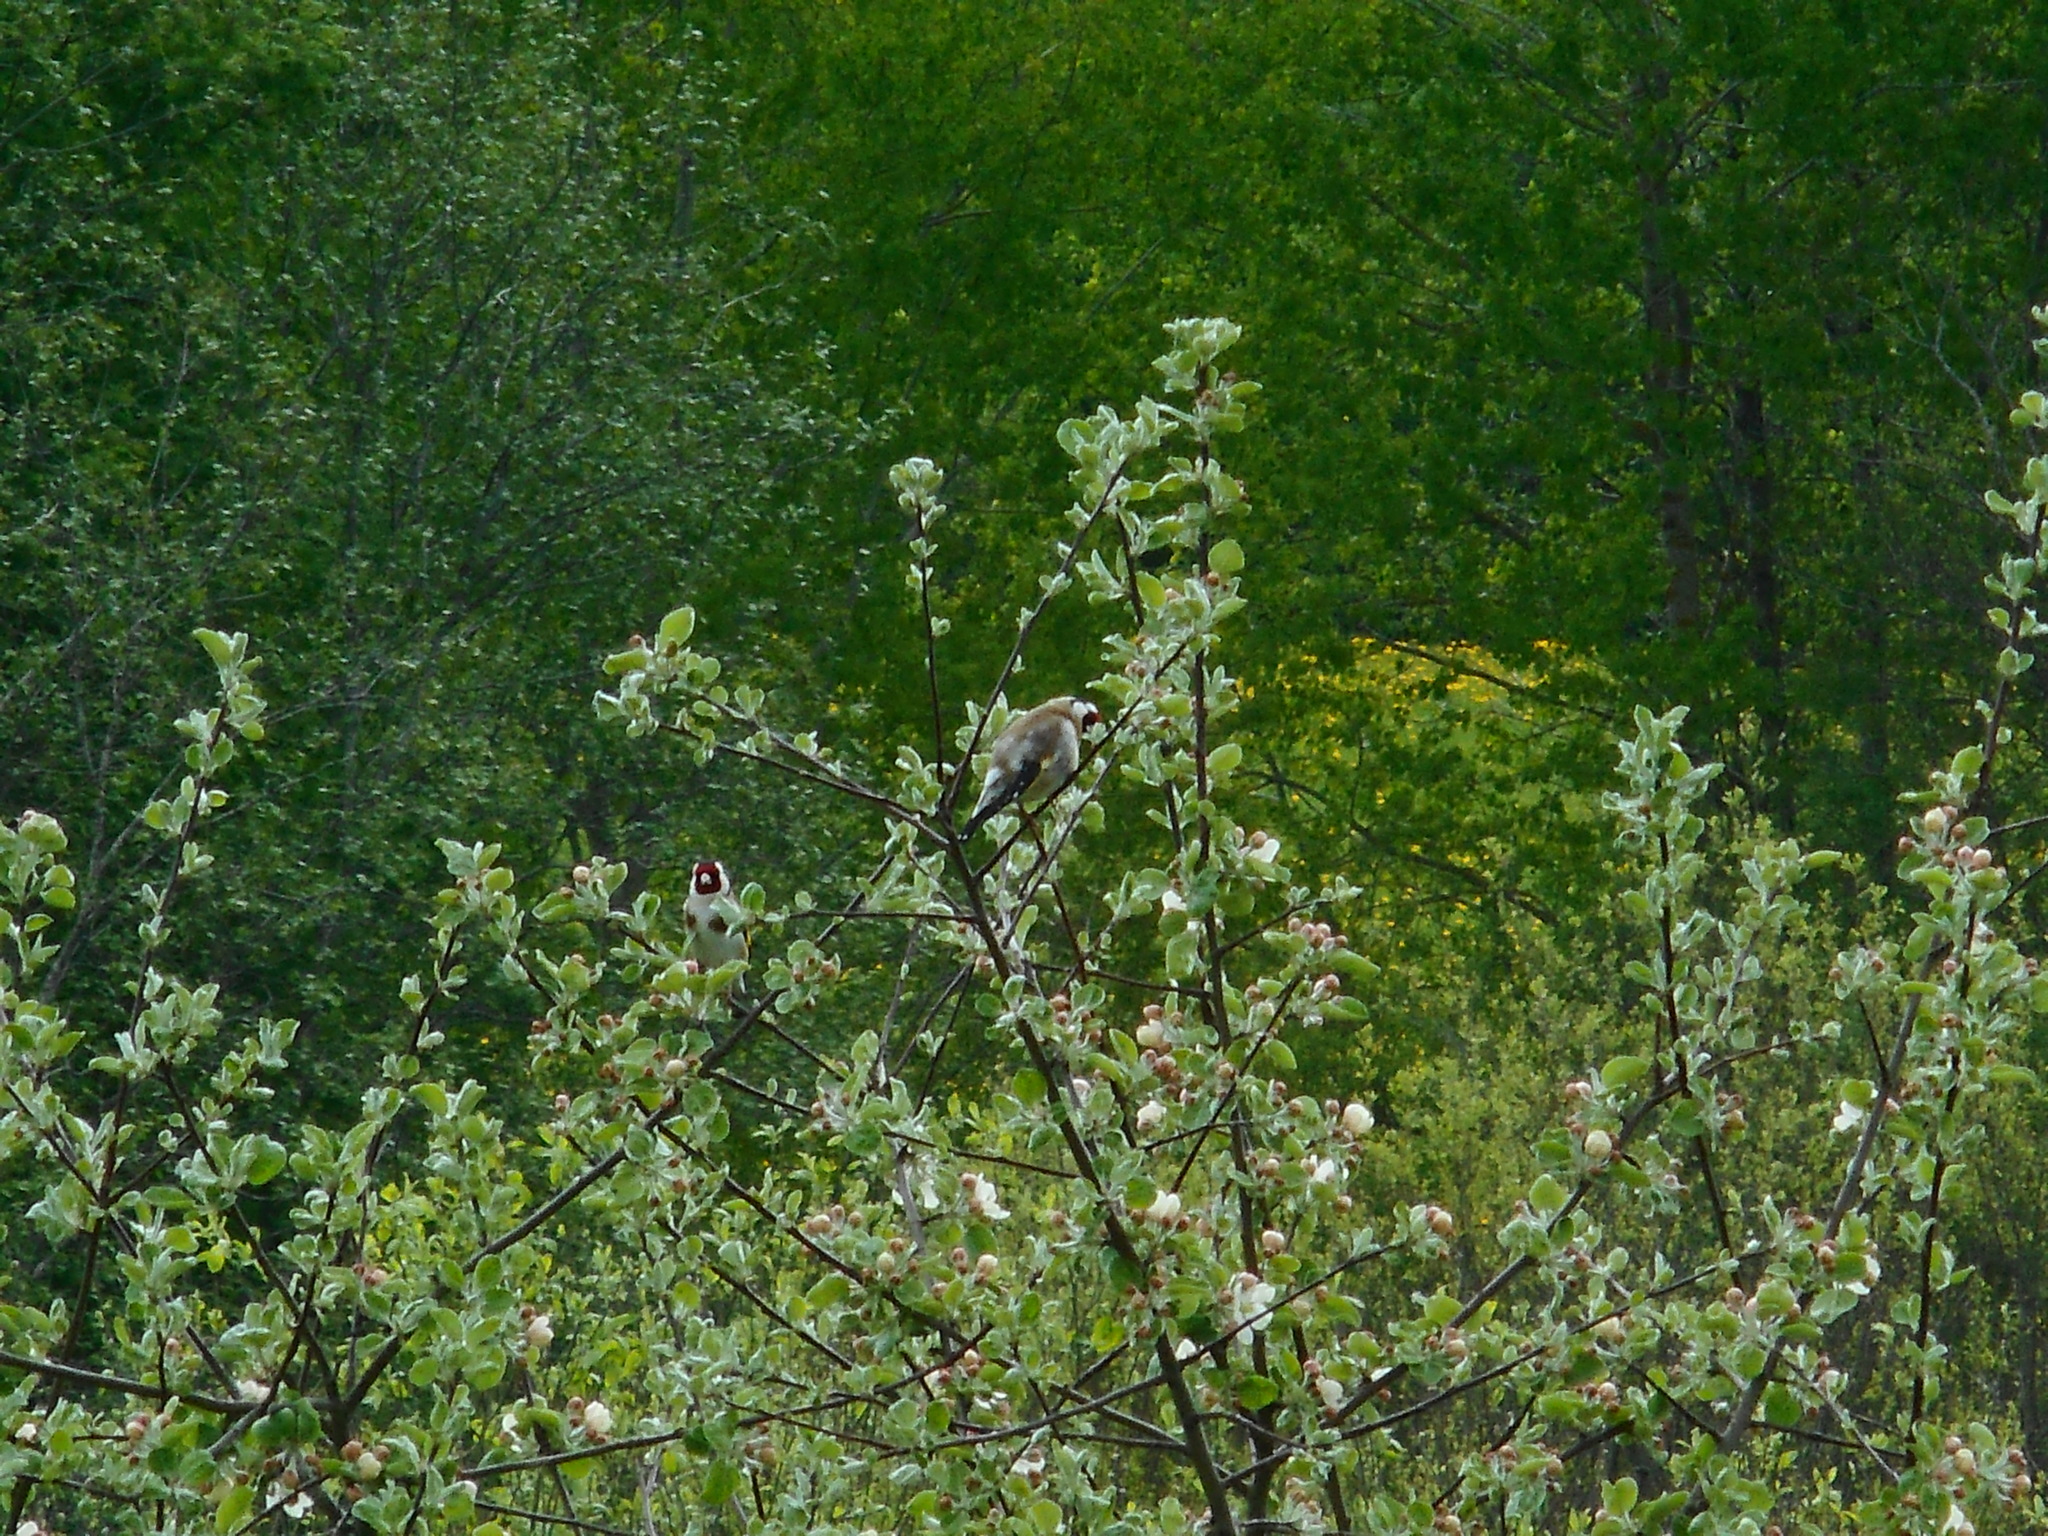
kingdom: Animalia
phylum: Chordata
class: Aves
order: Passeriformes
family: Fringillidae
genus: Carduelis
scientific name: Carduelis carduelis
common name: European goldfinch
